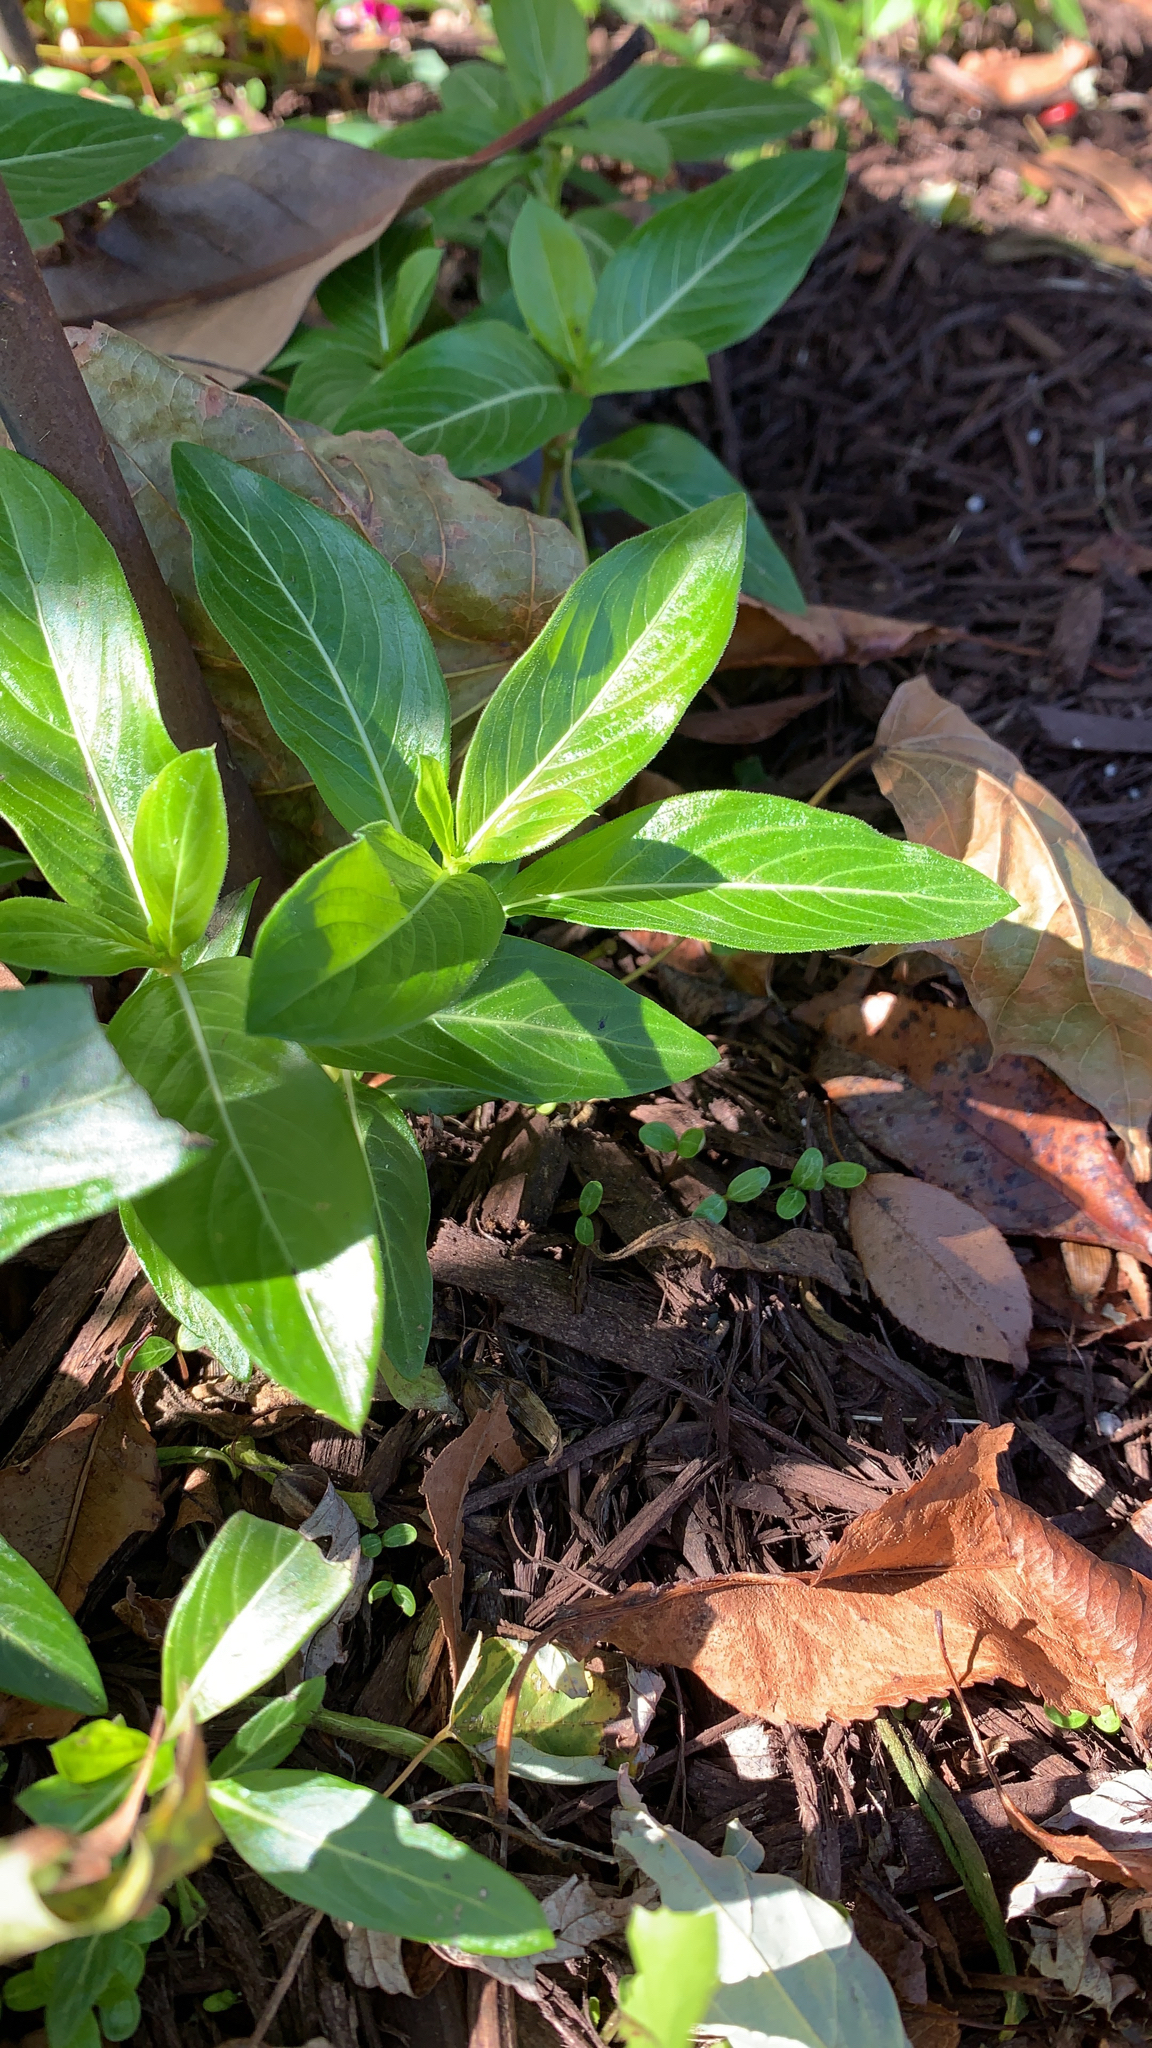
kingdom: Plantae
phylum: Tracheophyta
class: Magnoliopsida
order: Gentianales
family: Apocynaceae
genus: Catharanthus
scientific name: Catharanthus roseus
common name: Madagascar periwinkle
